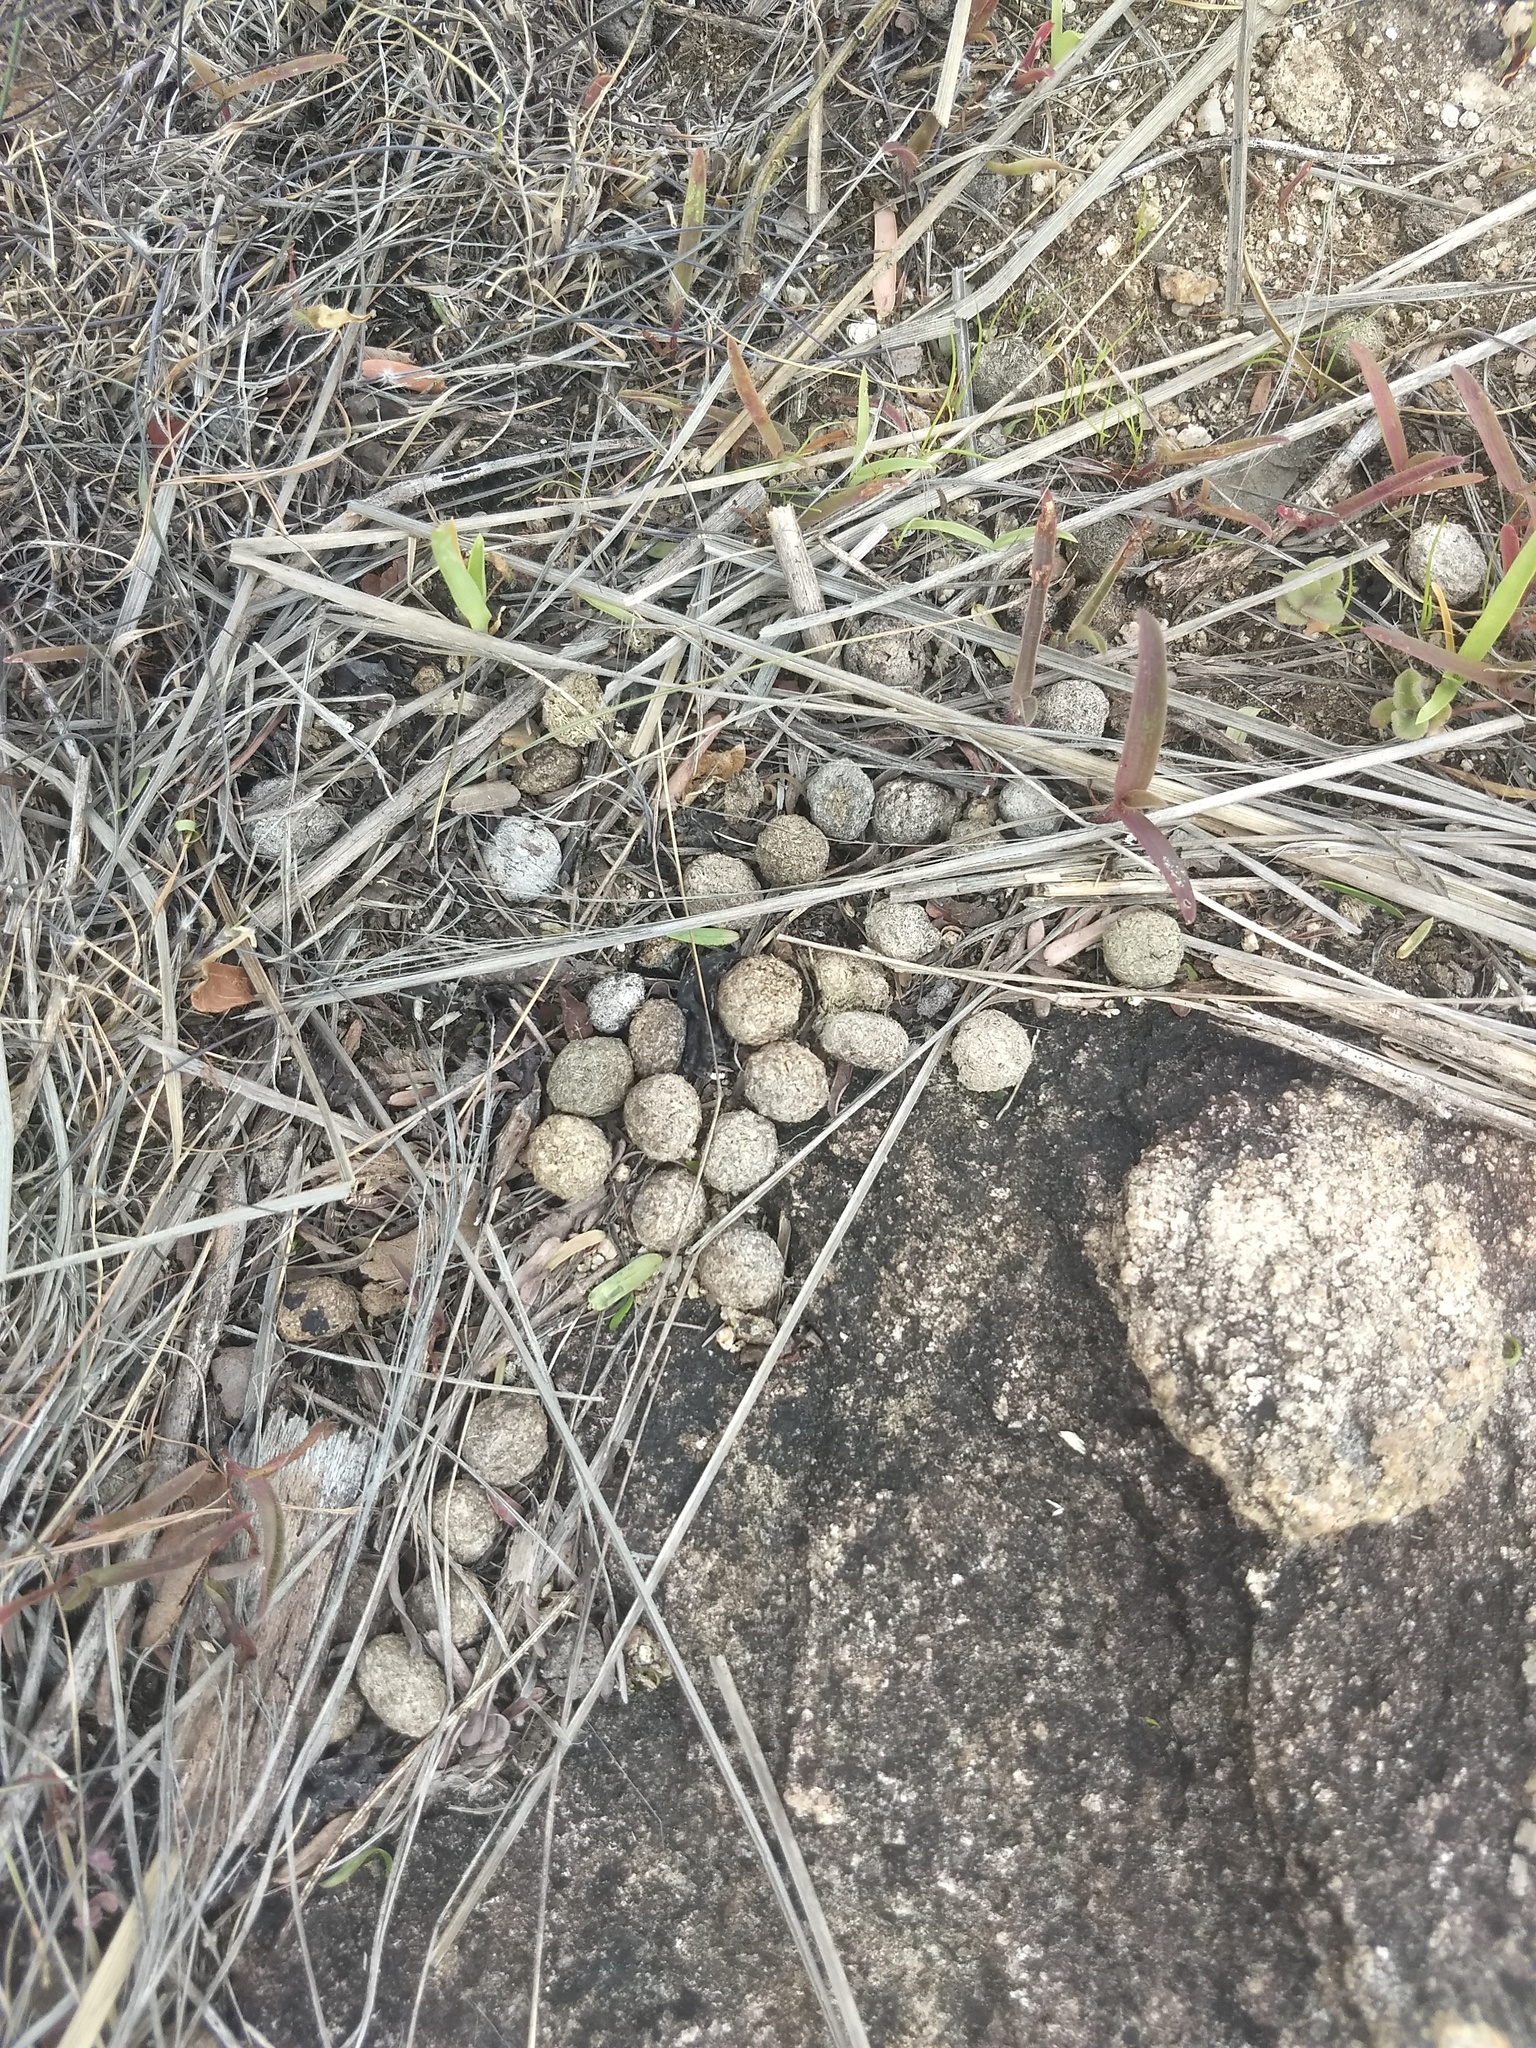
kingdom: Animalia
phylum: Chordata
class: Mammalia
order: Lagomorpha
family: Leporidae
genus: Lepus
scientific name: Lepus nigricollis
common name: Indian hare
